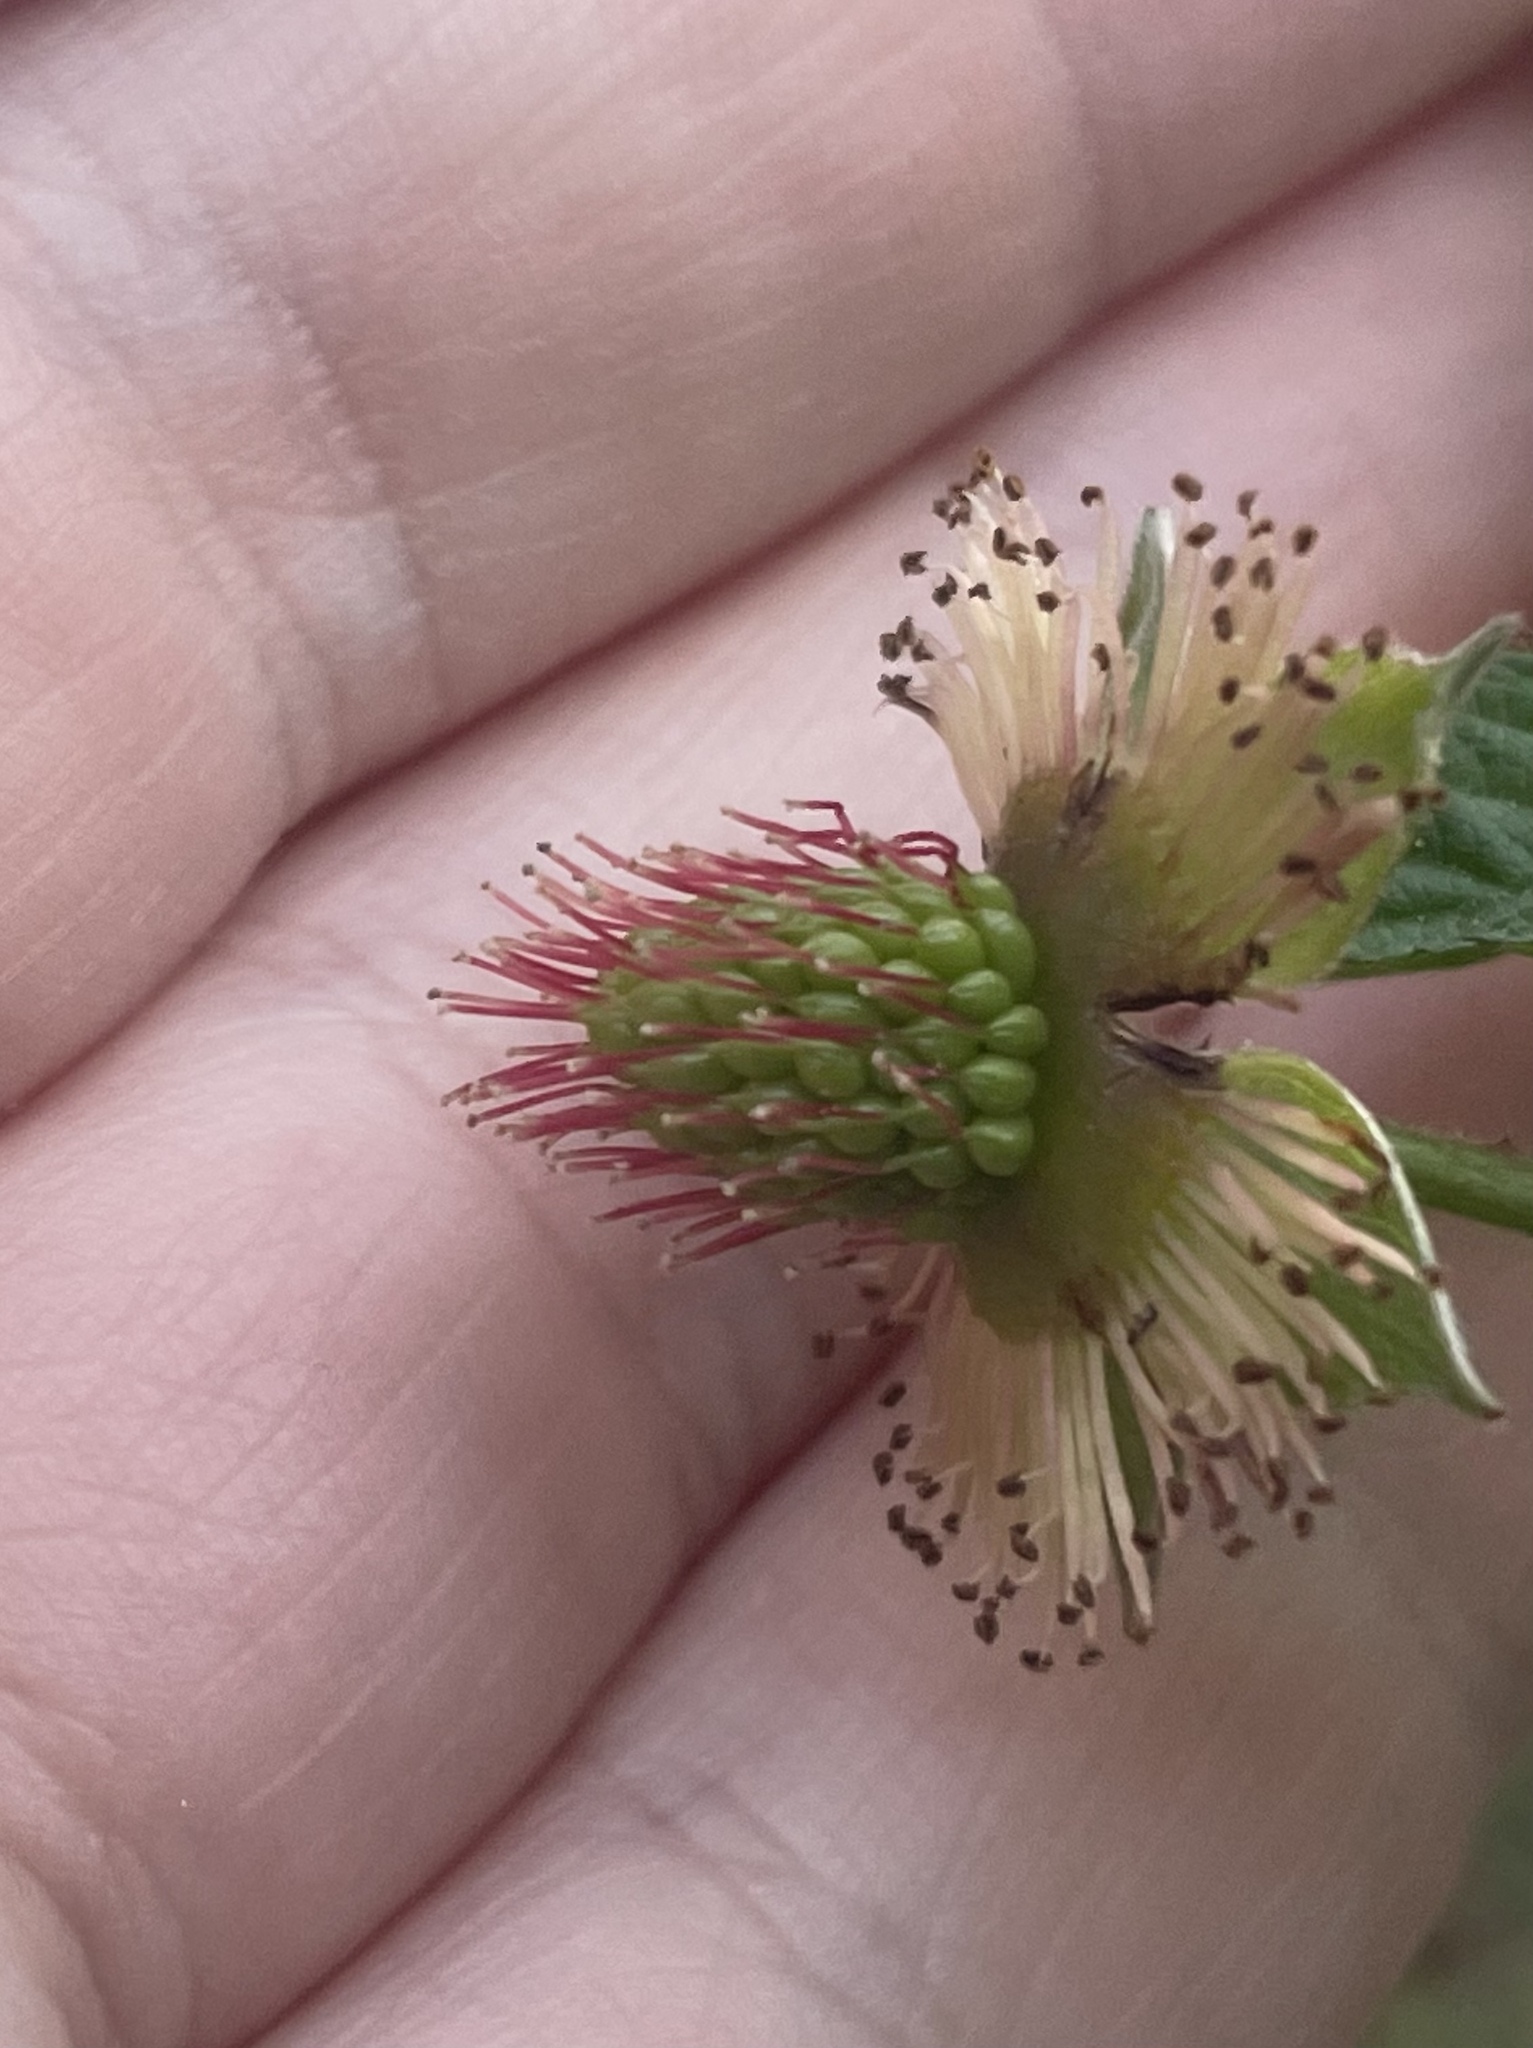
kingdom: Plantae
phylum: Tracheophyta
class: Magnoliopsida
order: Rosales
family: Rosaceae
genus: Rubus
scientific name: Rubus spectabilis
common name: Salmonberry
